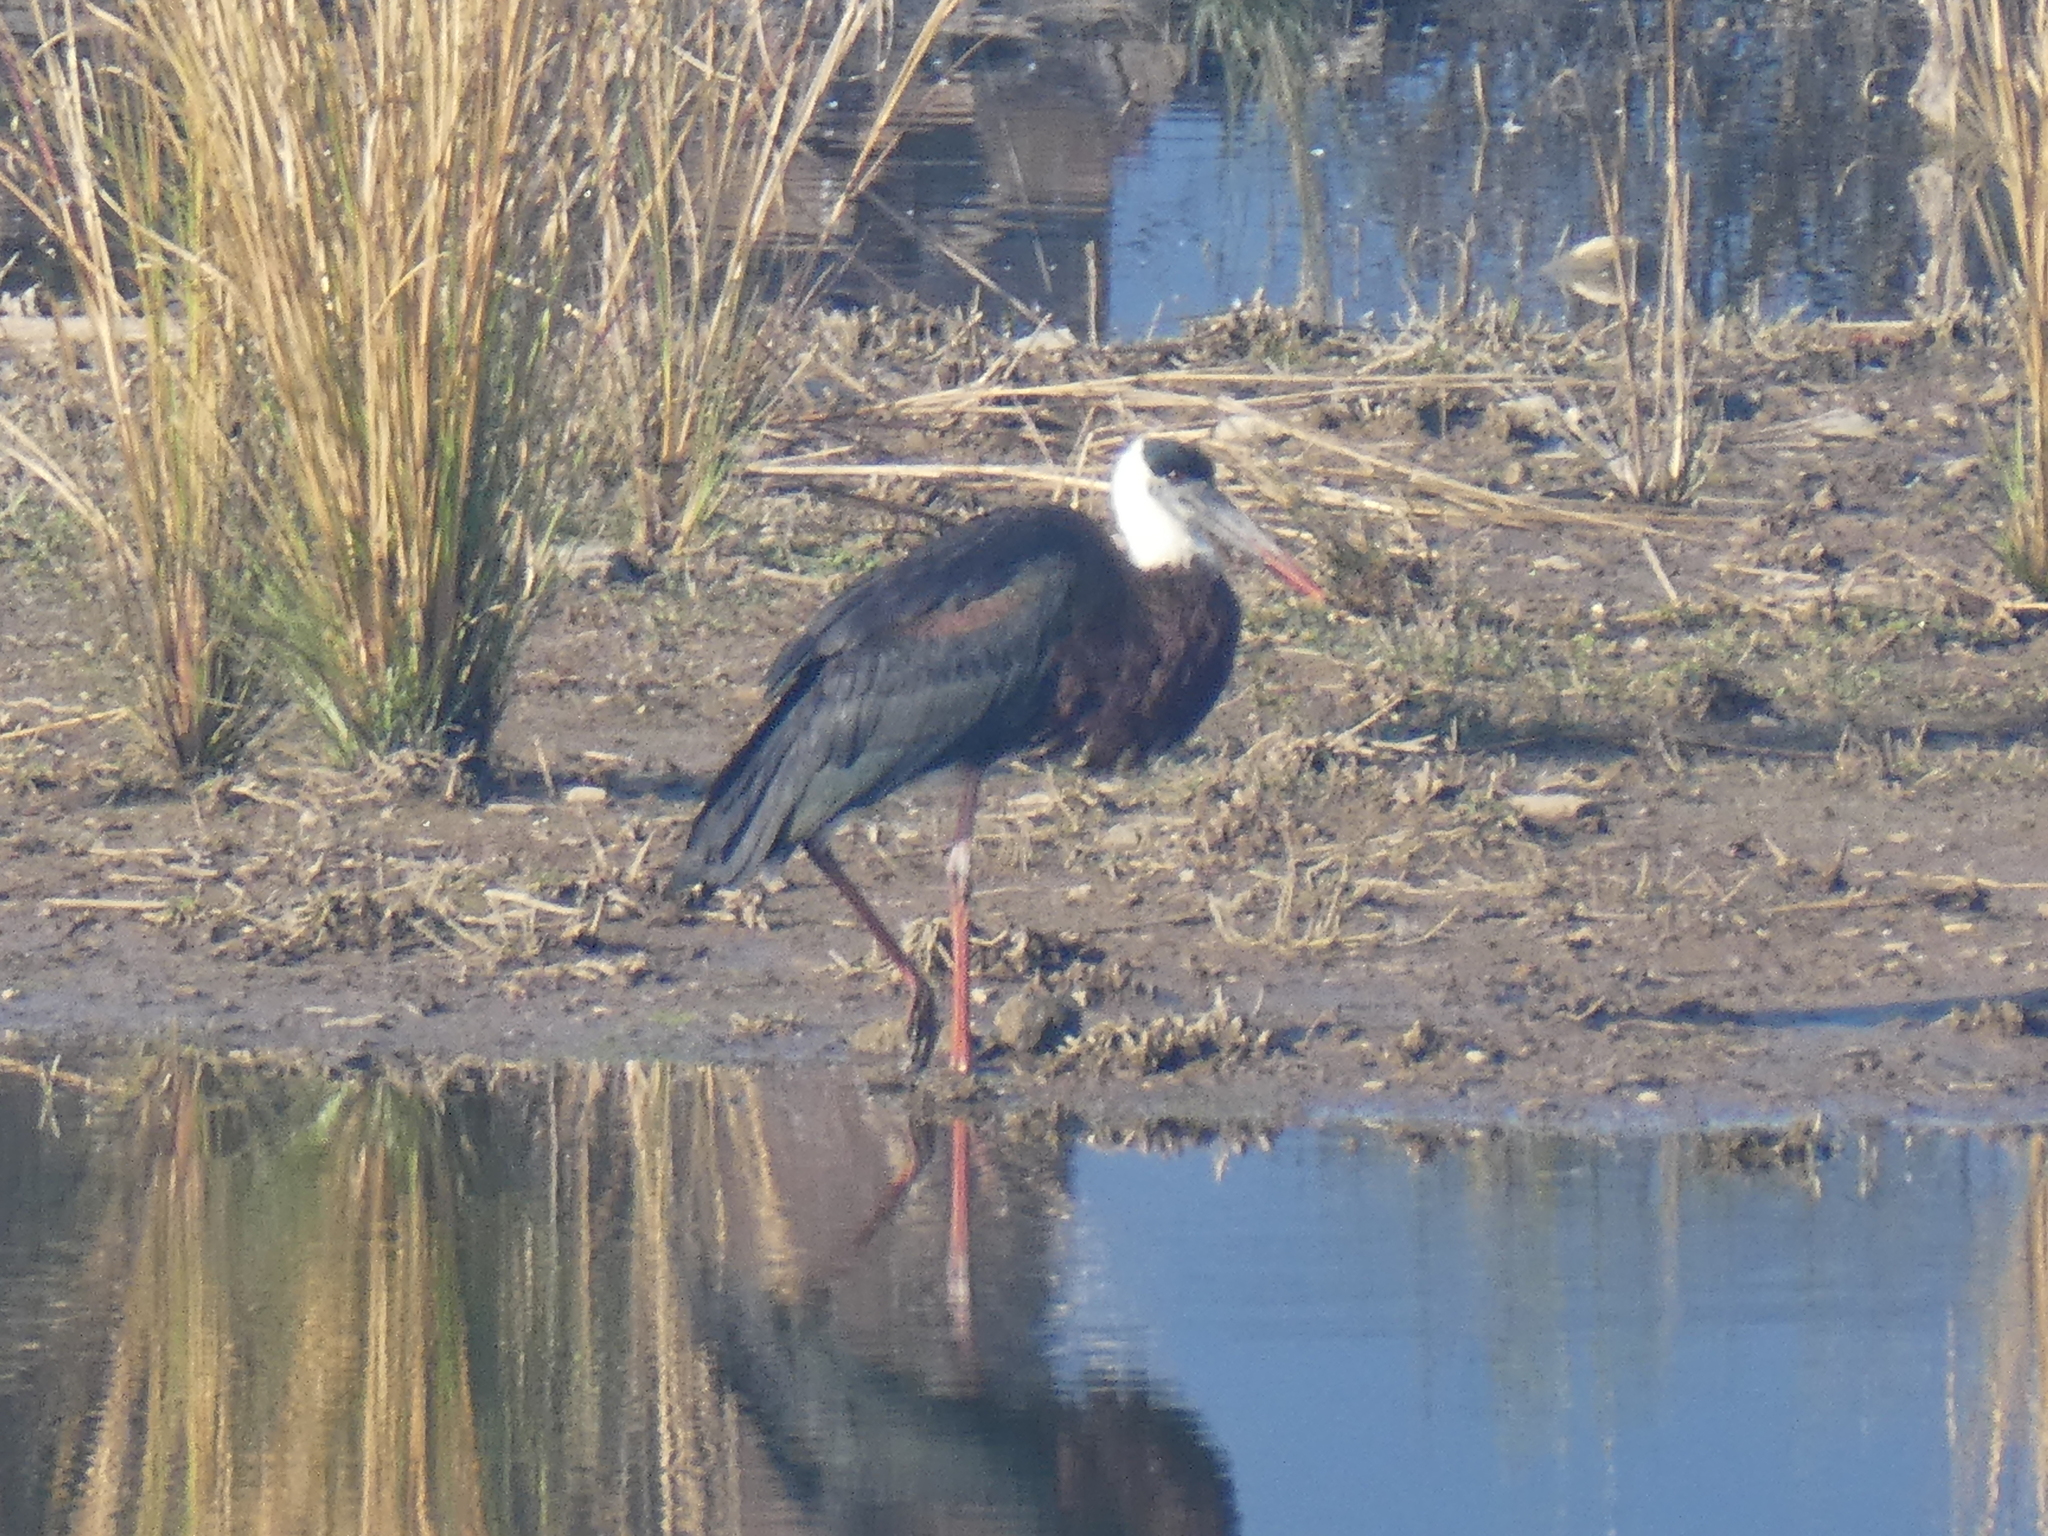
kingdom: Animalia
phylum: Chordata
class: Aves
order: Ciconiiformes
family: Ciconiidae
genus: Ciconia
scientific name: Ciconia episcopus
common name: Woolly-necked stork
